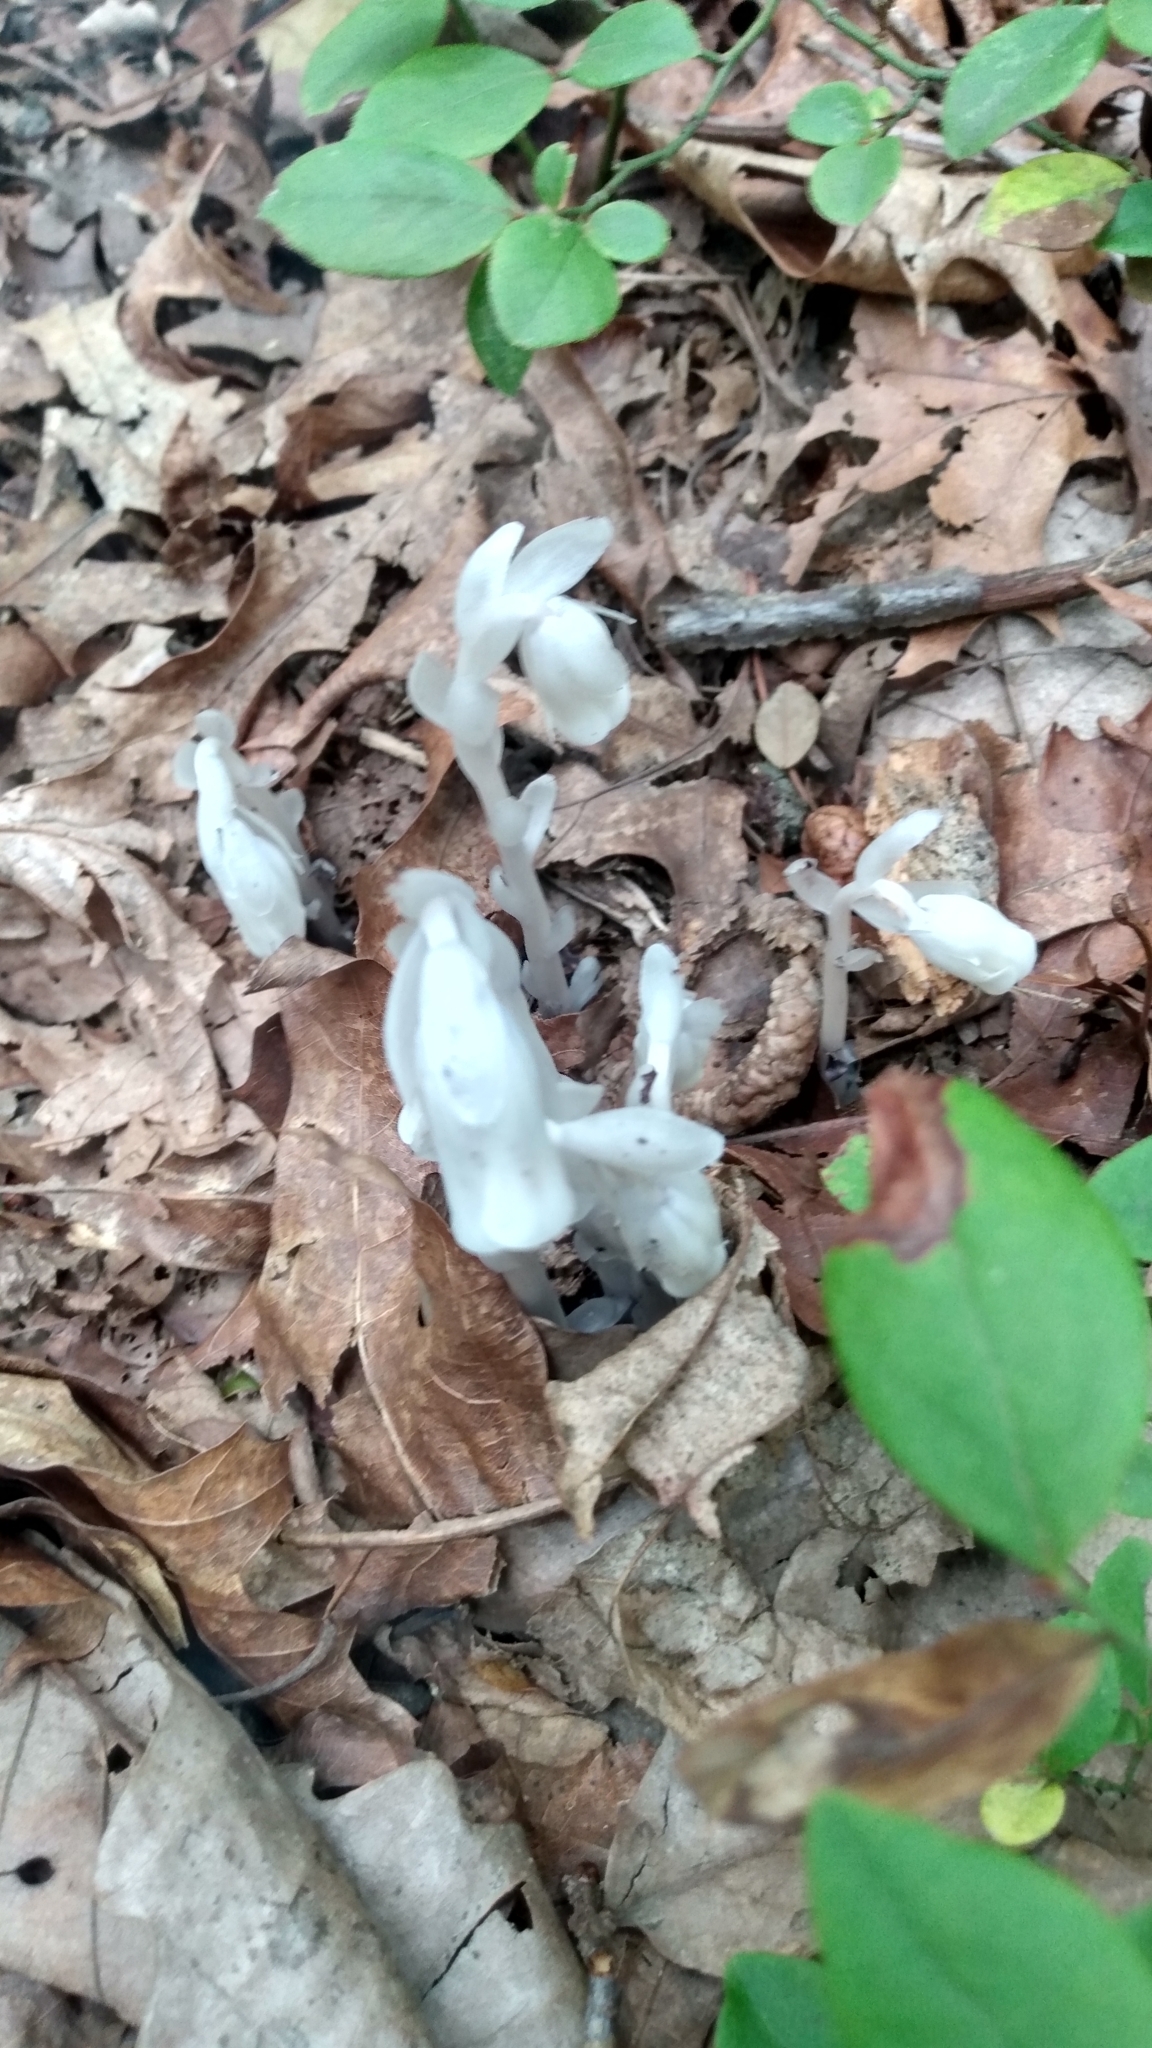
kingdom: Plantae
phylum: Tracheophyta
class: Magnoliopsida
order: Ericales
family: Ericaceae
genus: Monotropa
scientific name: Monotropa uniflora
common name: Convulsion root
